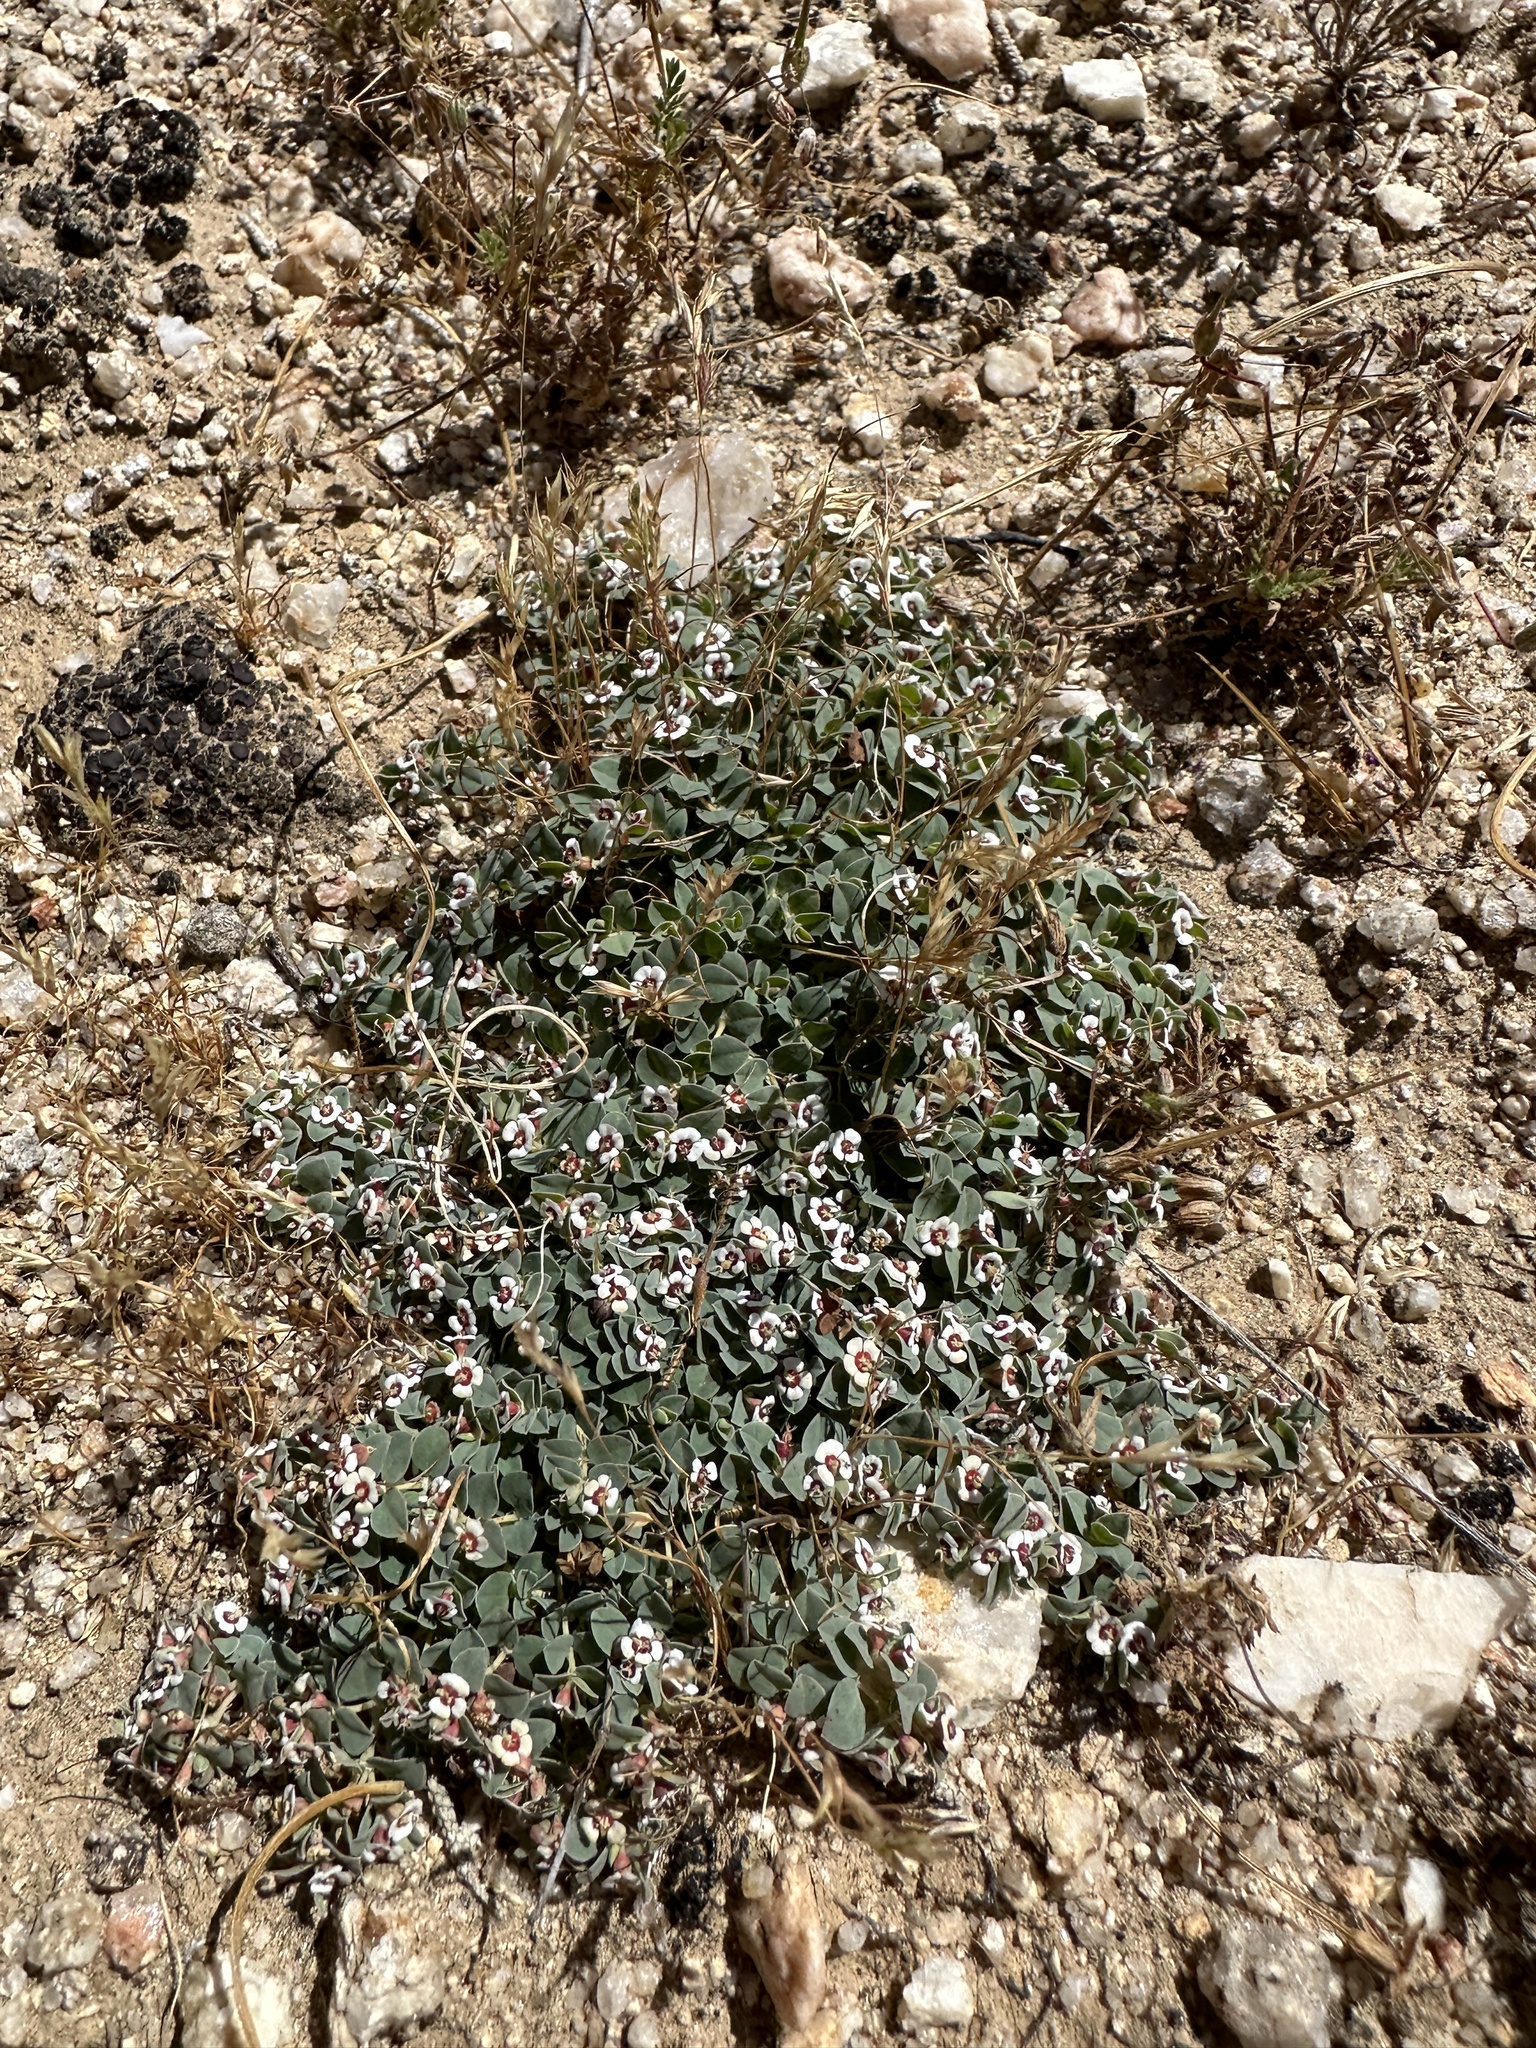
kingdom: Plantae
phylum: Tracheophyta
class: Magnoliopsida
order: Malpighiales
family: Euphorbiaceae
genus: Euphorbia
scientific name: Euphorbia albomarginata
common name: Whitemargin sandmat
